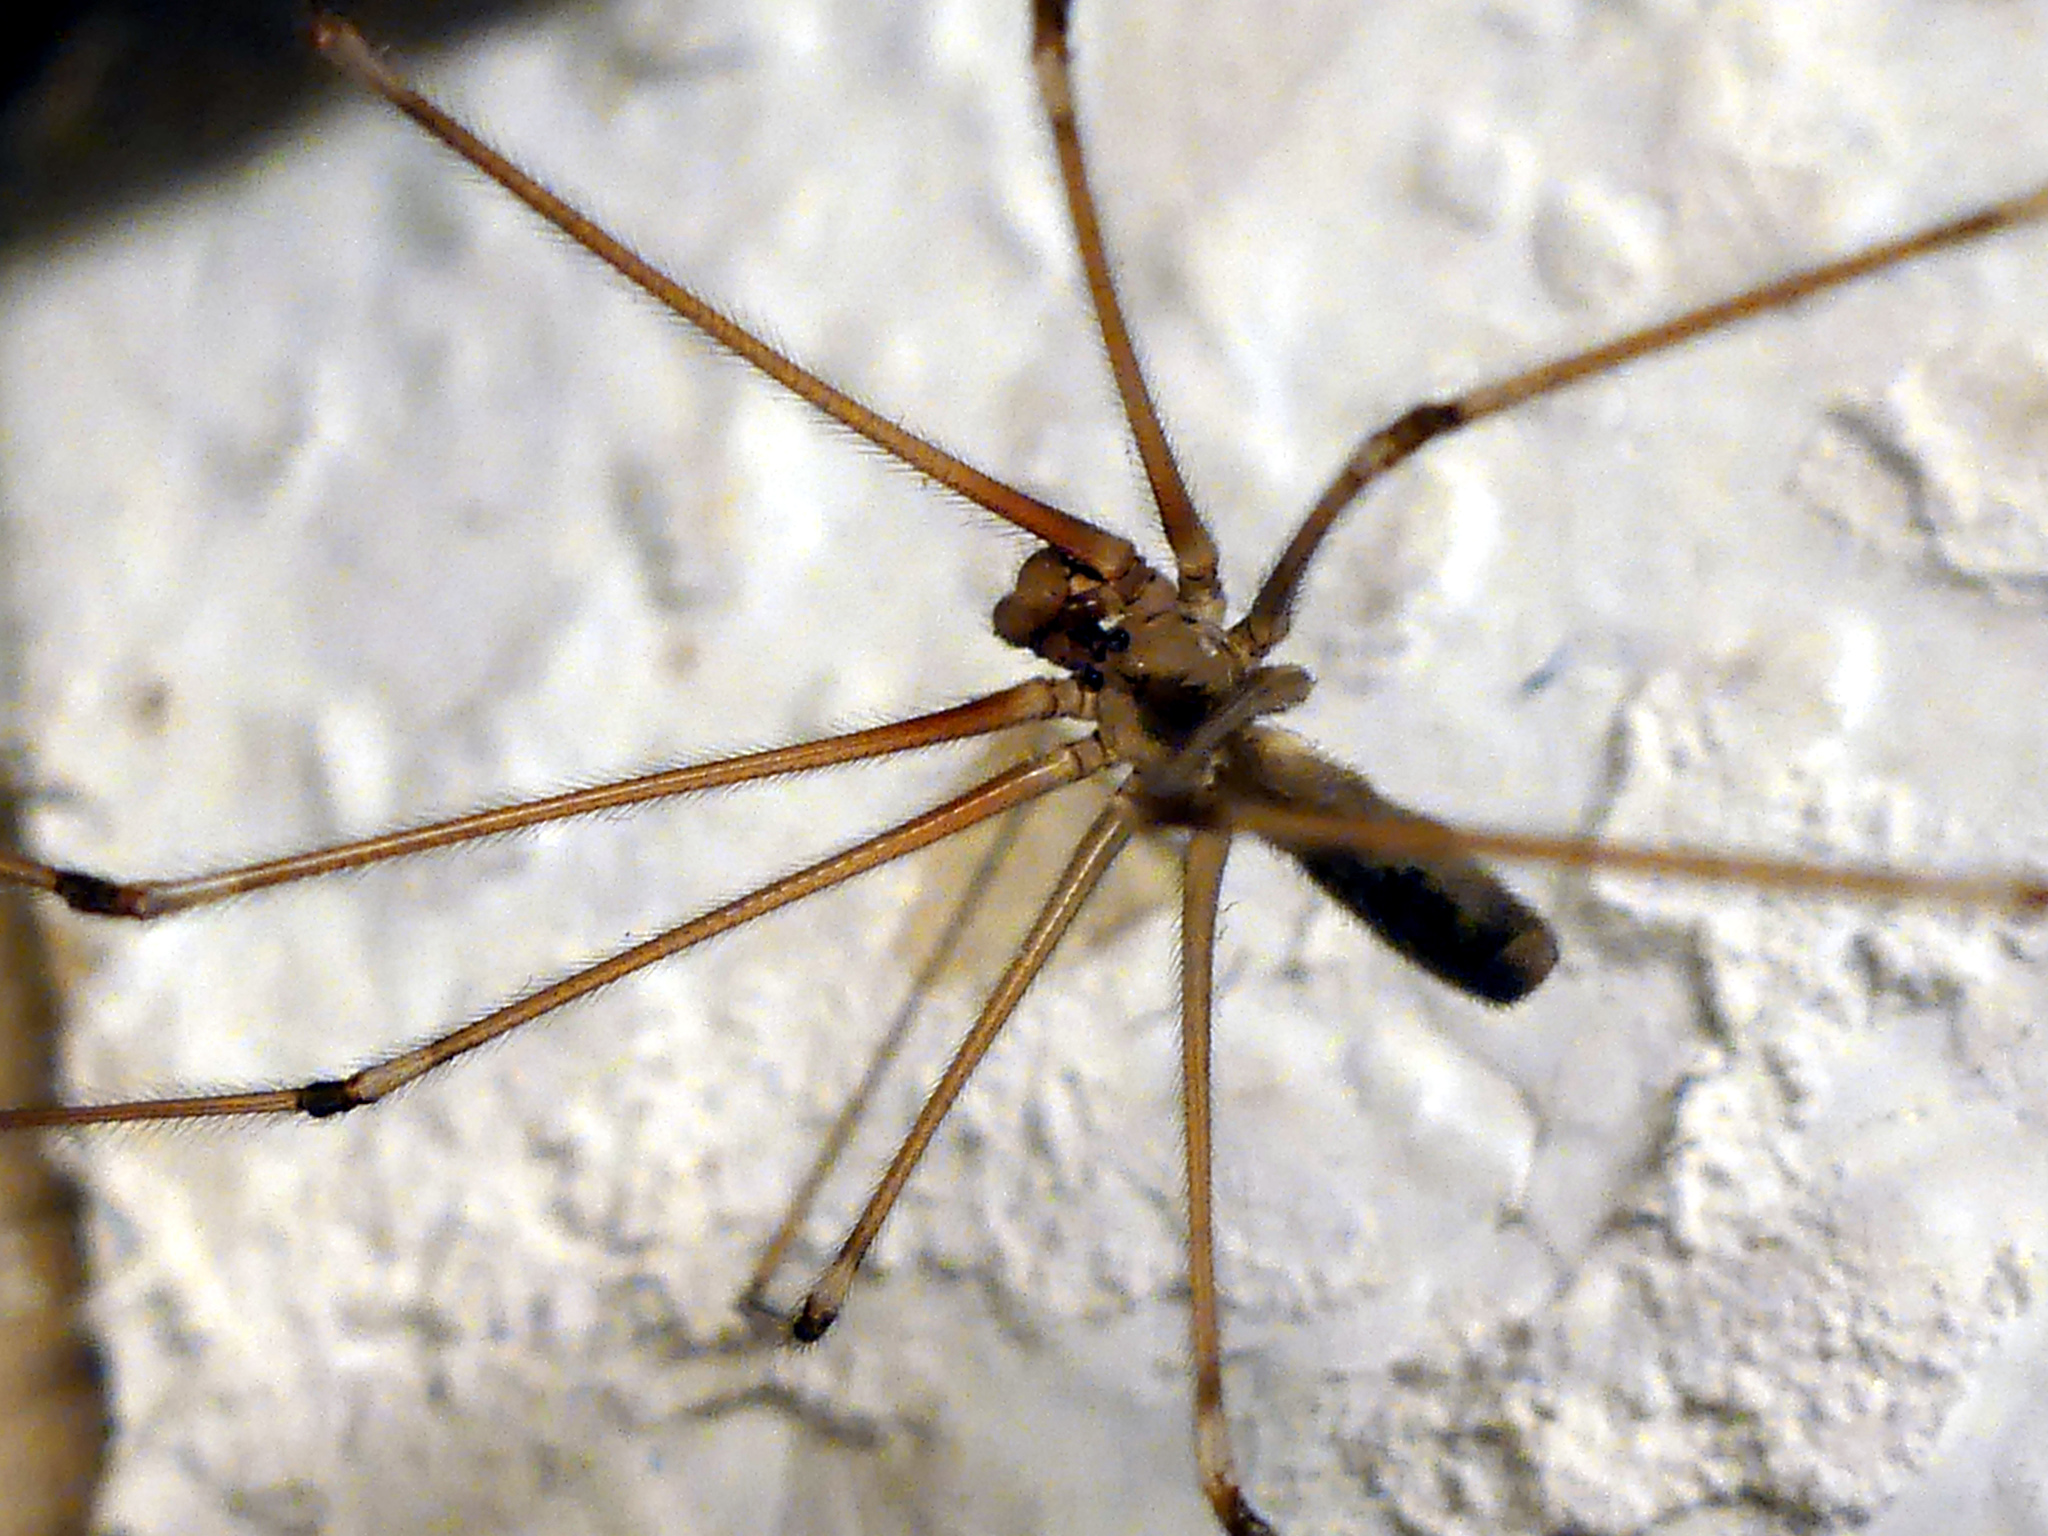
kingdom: Animalia
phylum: Arthropoda
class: Arachnida
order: Araneae
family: Pholcidae
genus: Pholcus
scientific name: Pholcus phalangioides
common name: Longbodied cellar spider
